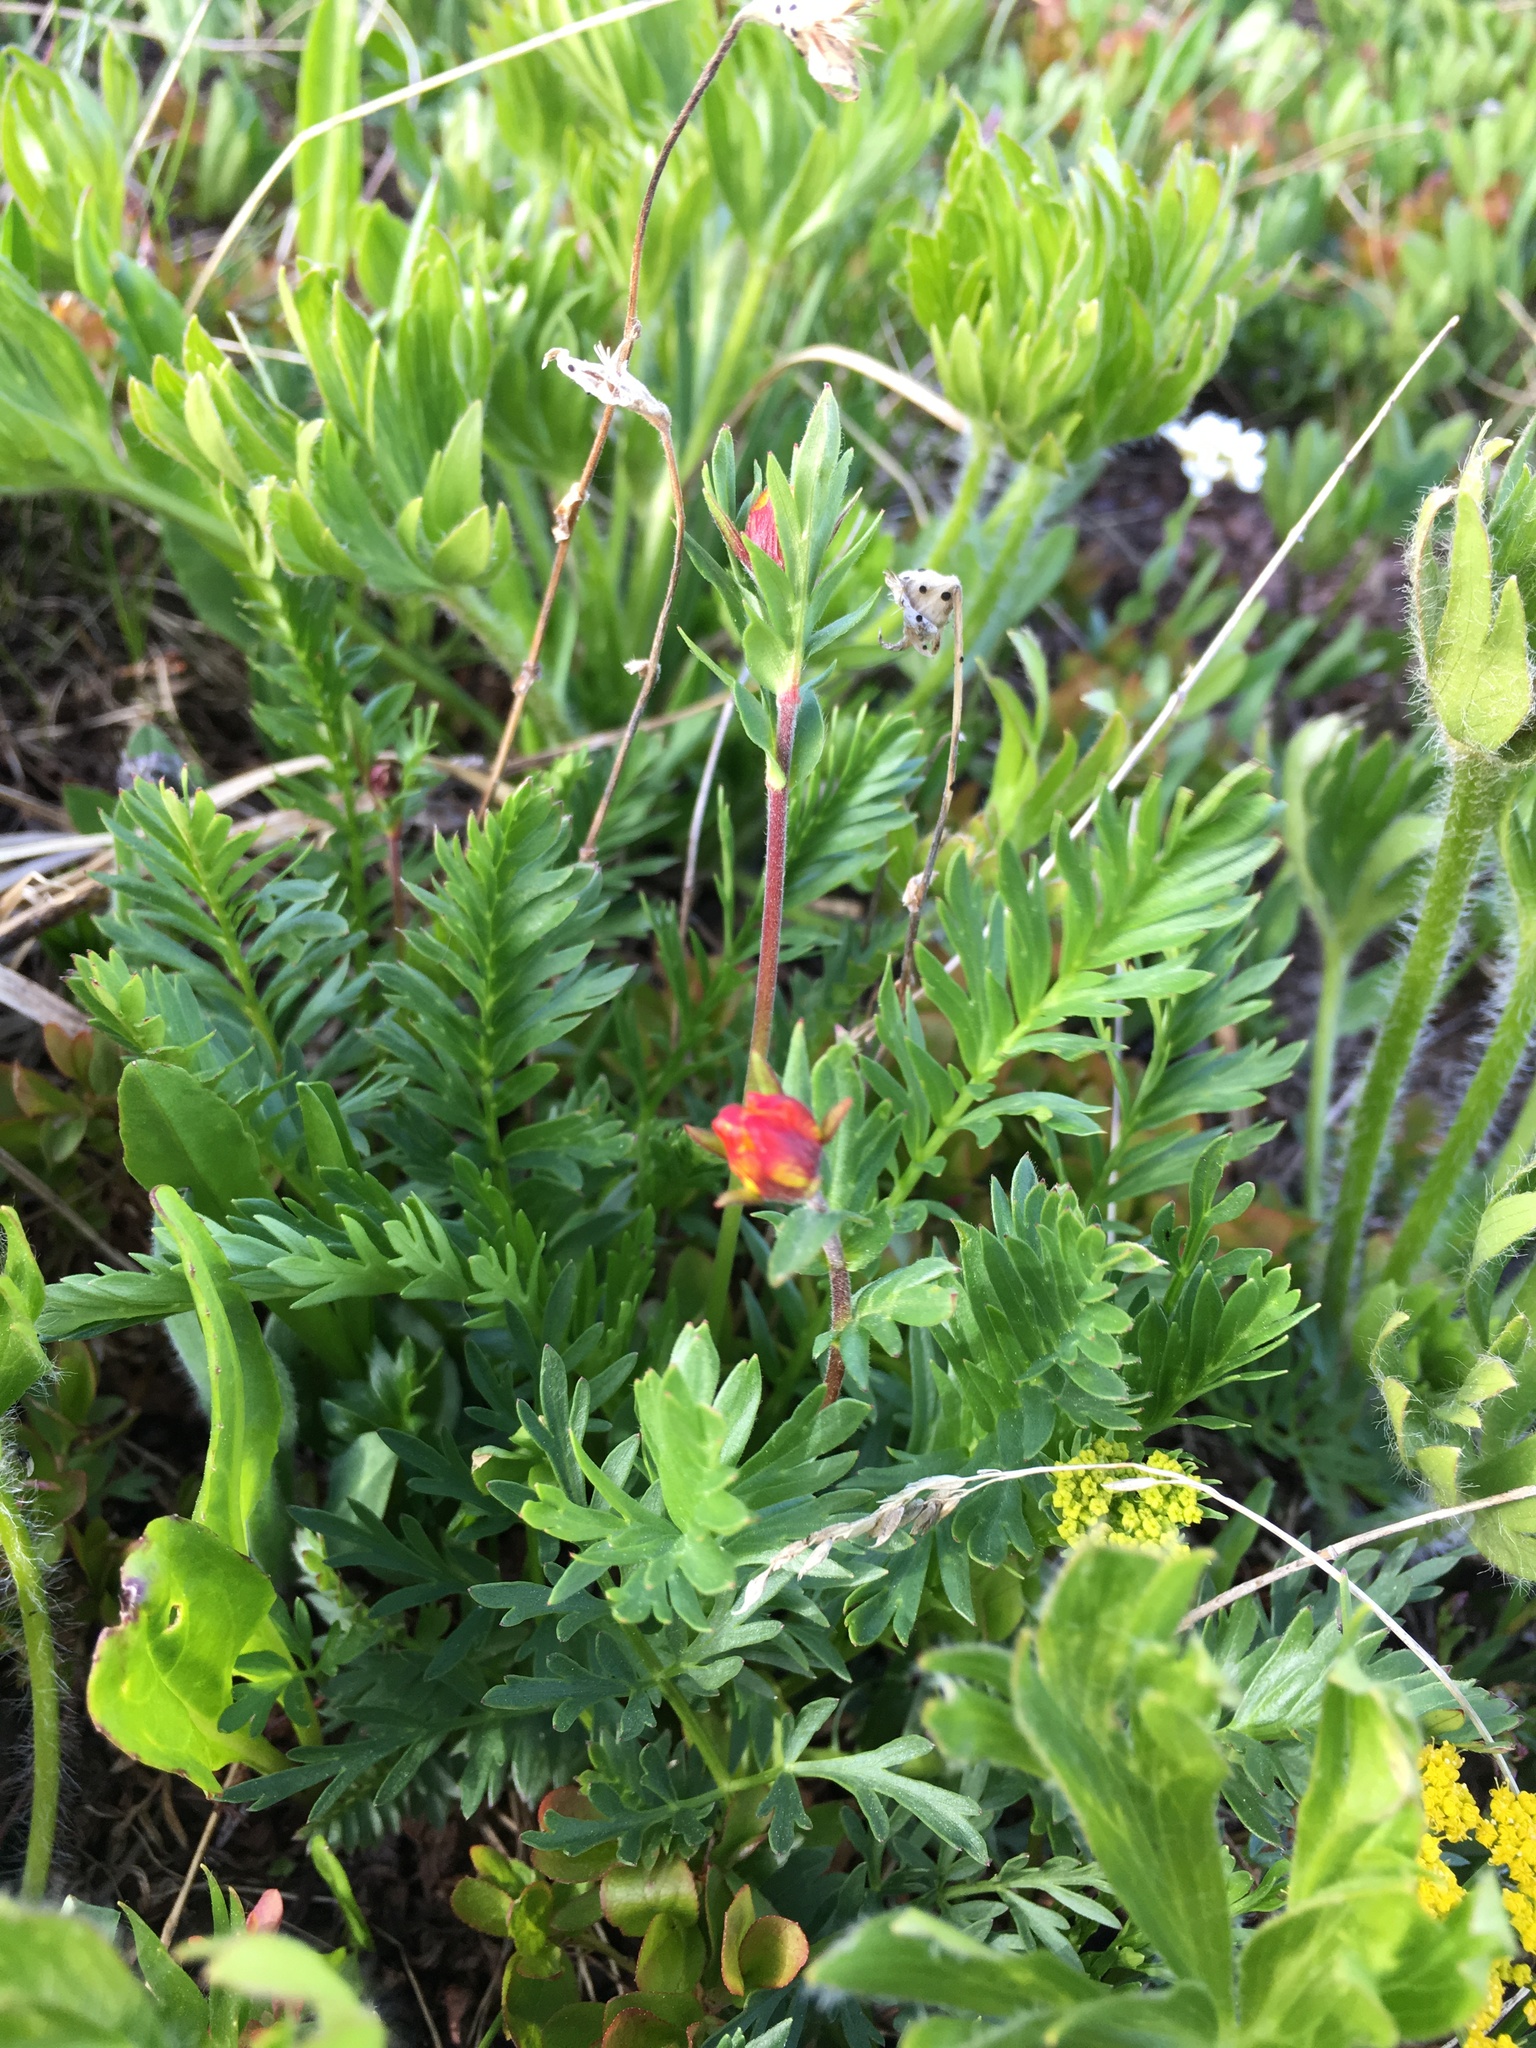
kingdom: Plantae
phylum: Tracheophyta
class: Magnoliopsida
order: Rosales
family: Rosaceae
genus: Geum
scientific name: Geum rossii
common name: Alpine avens
